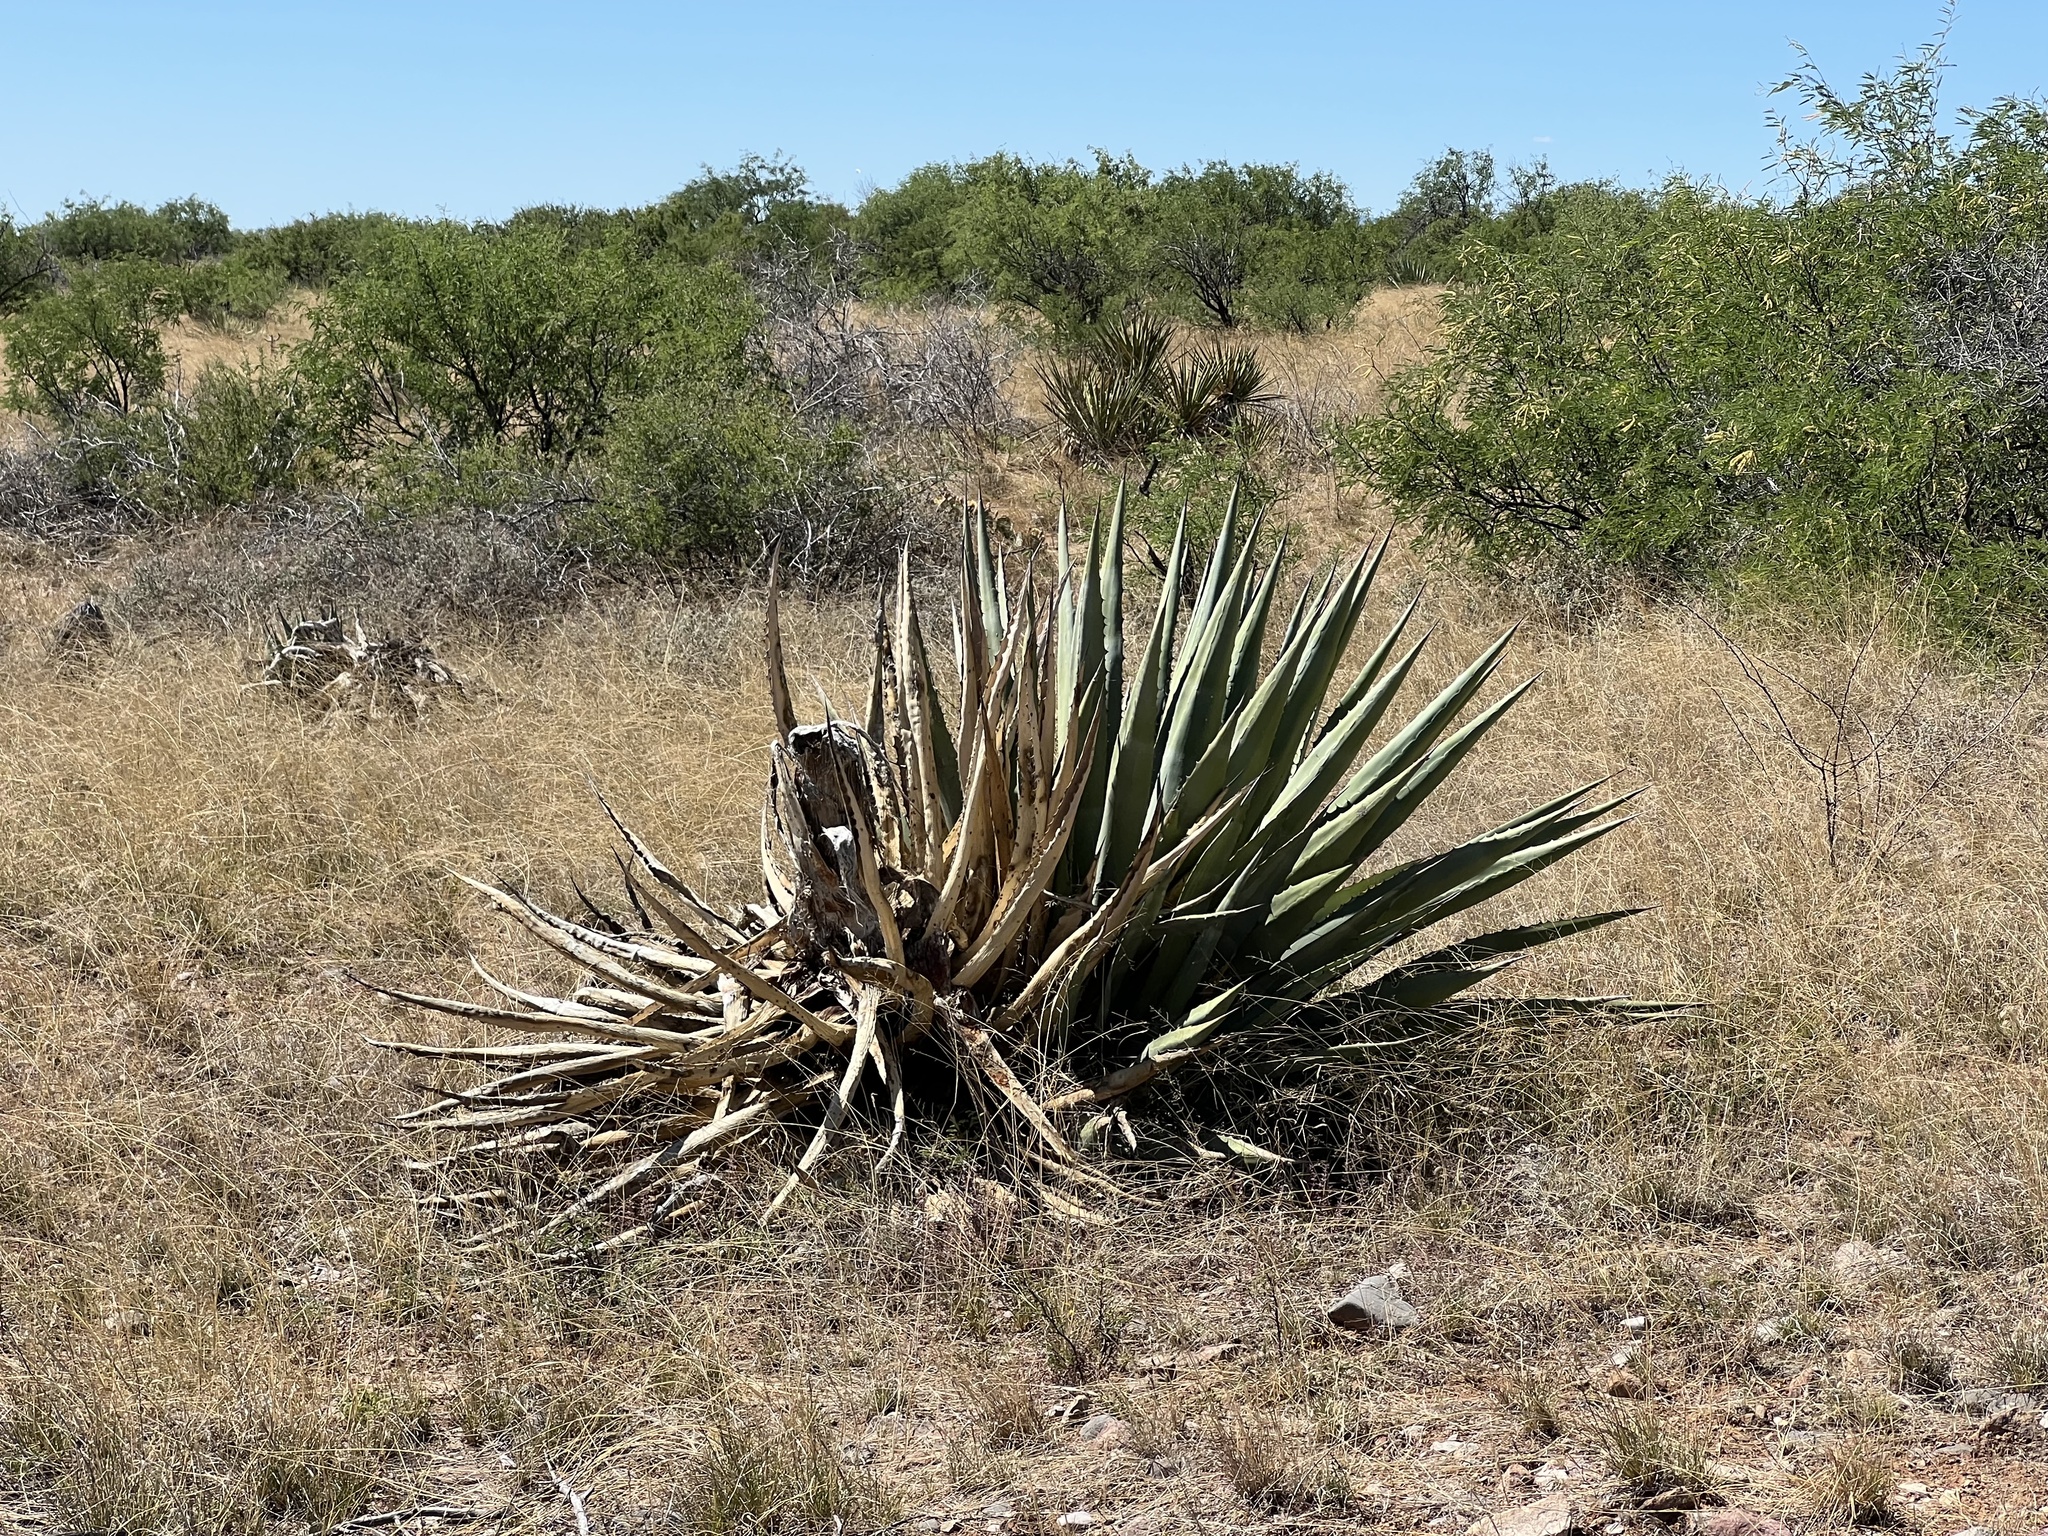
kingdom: Plantae
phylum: Tracheophyta
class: Liliopsida
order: Asparagales
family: Asparagaceae
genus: Agave
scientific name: Agave palmeri
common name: Palmer agave
